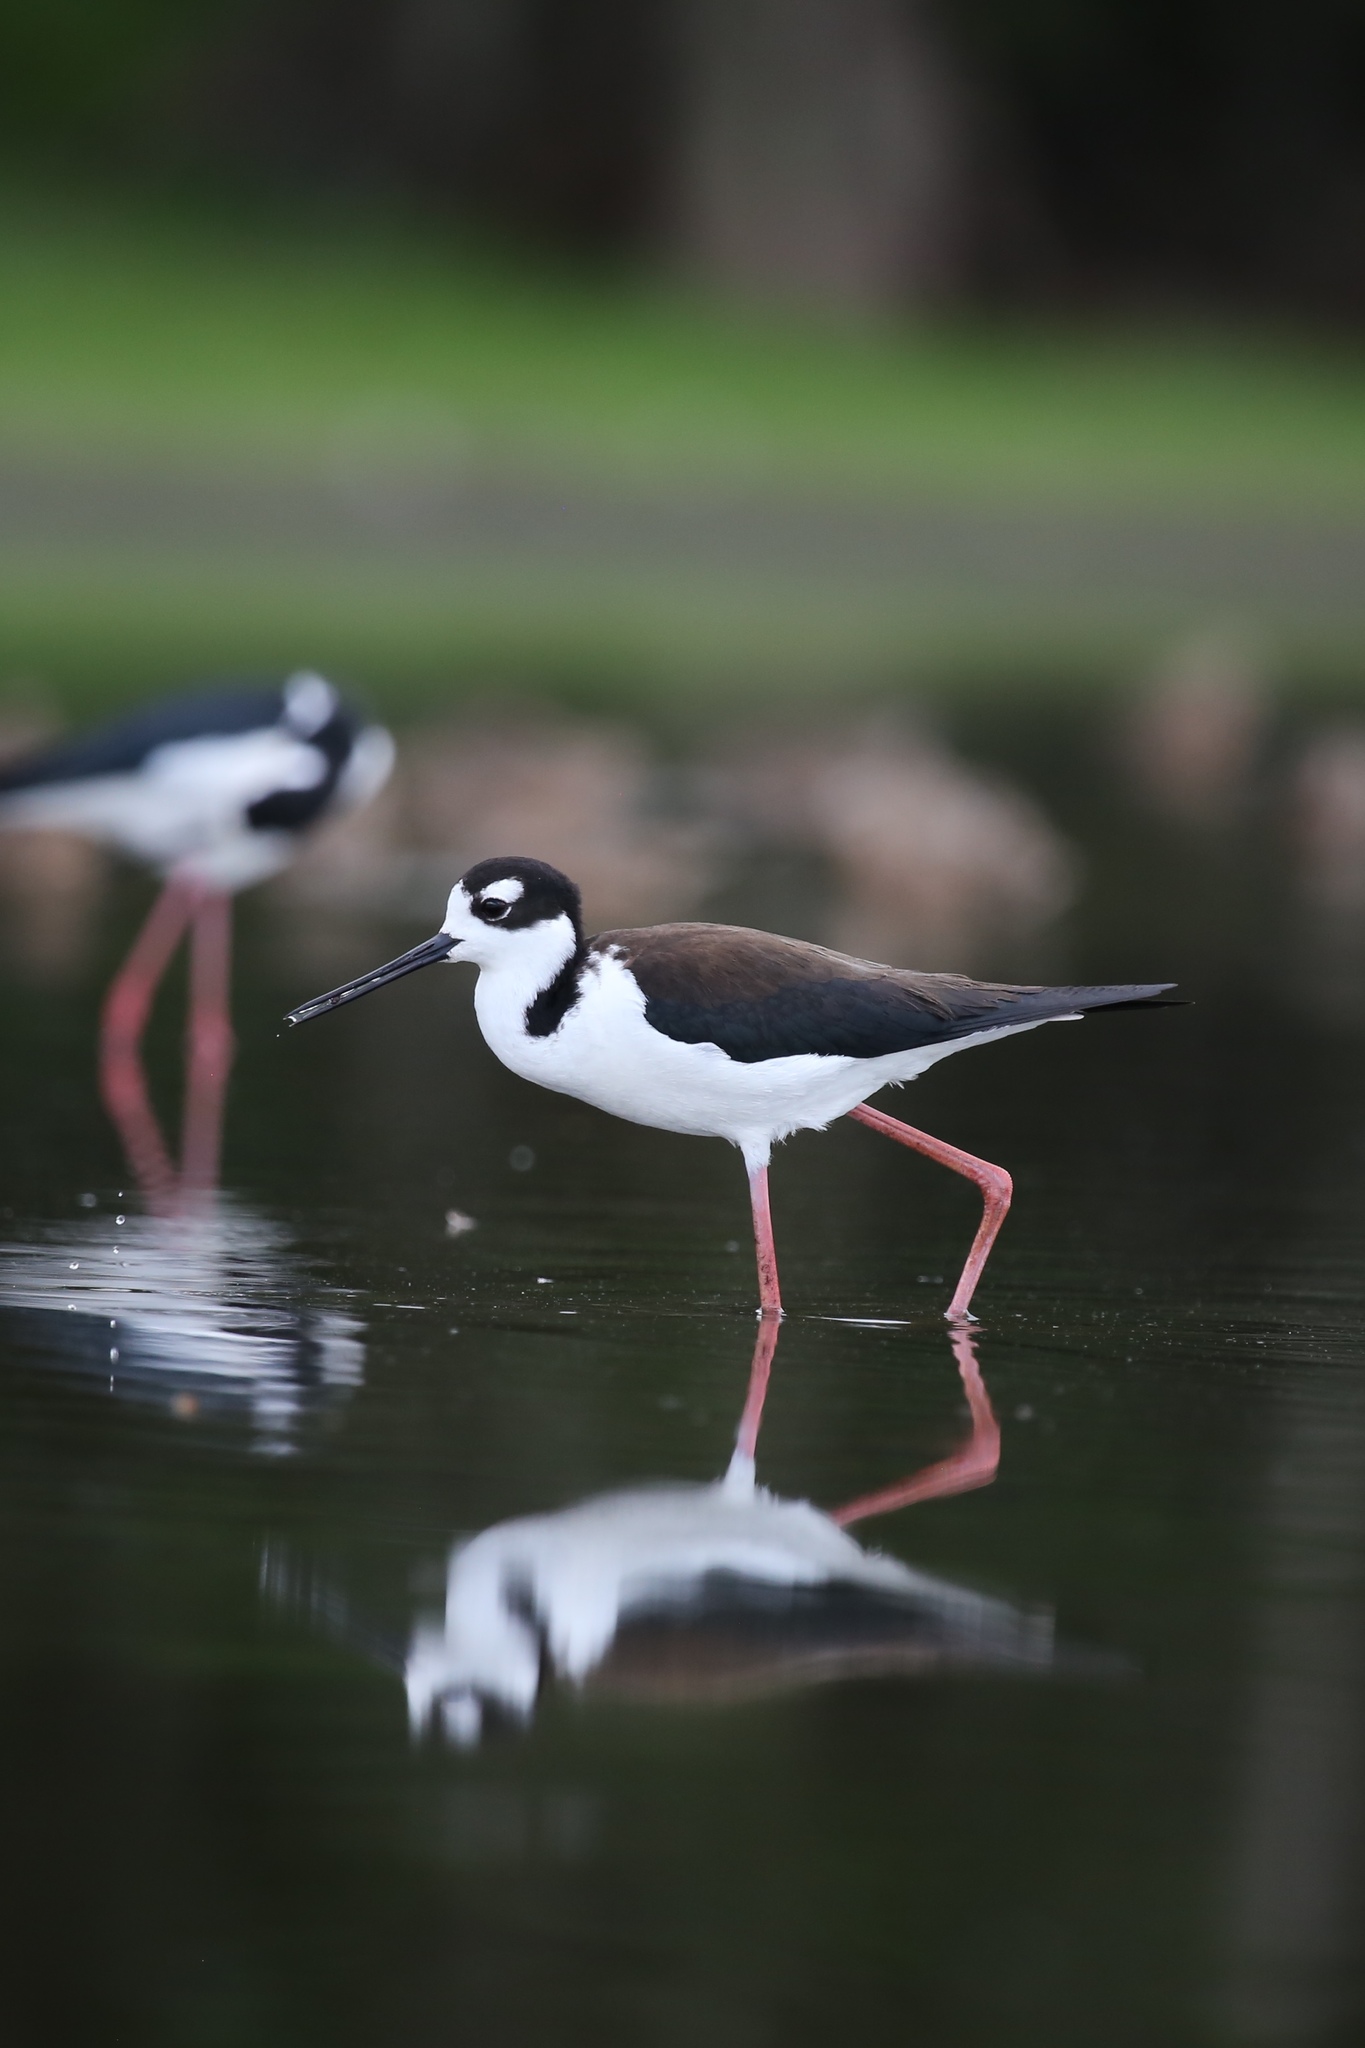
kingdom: Animalia
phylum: Chordata
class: Aves
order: Charadriiformes
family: Recurvirostridae
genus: Himantopus
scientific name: Himantopus mexicanus
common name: Black-necked stilt
